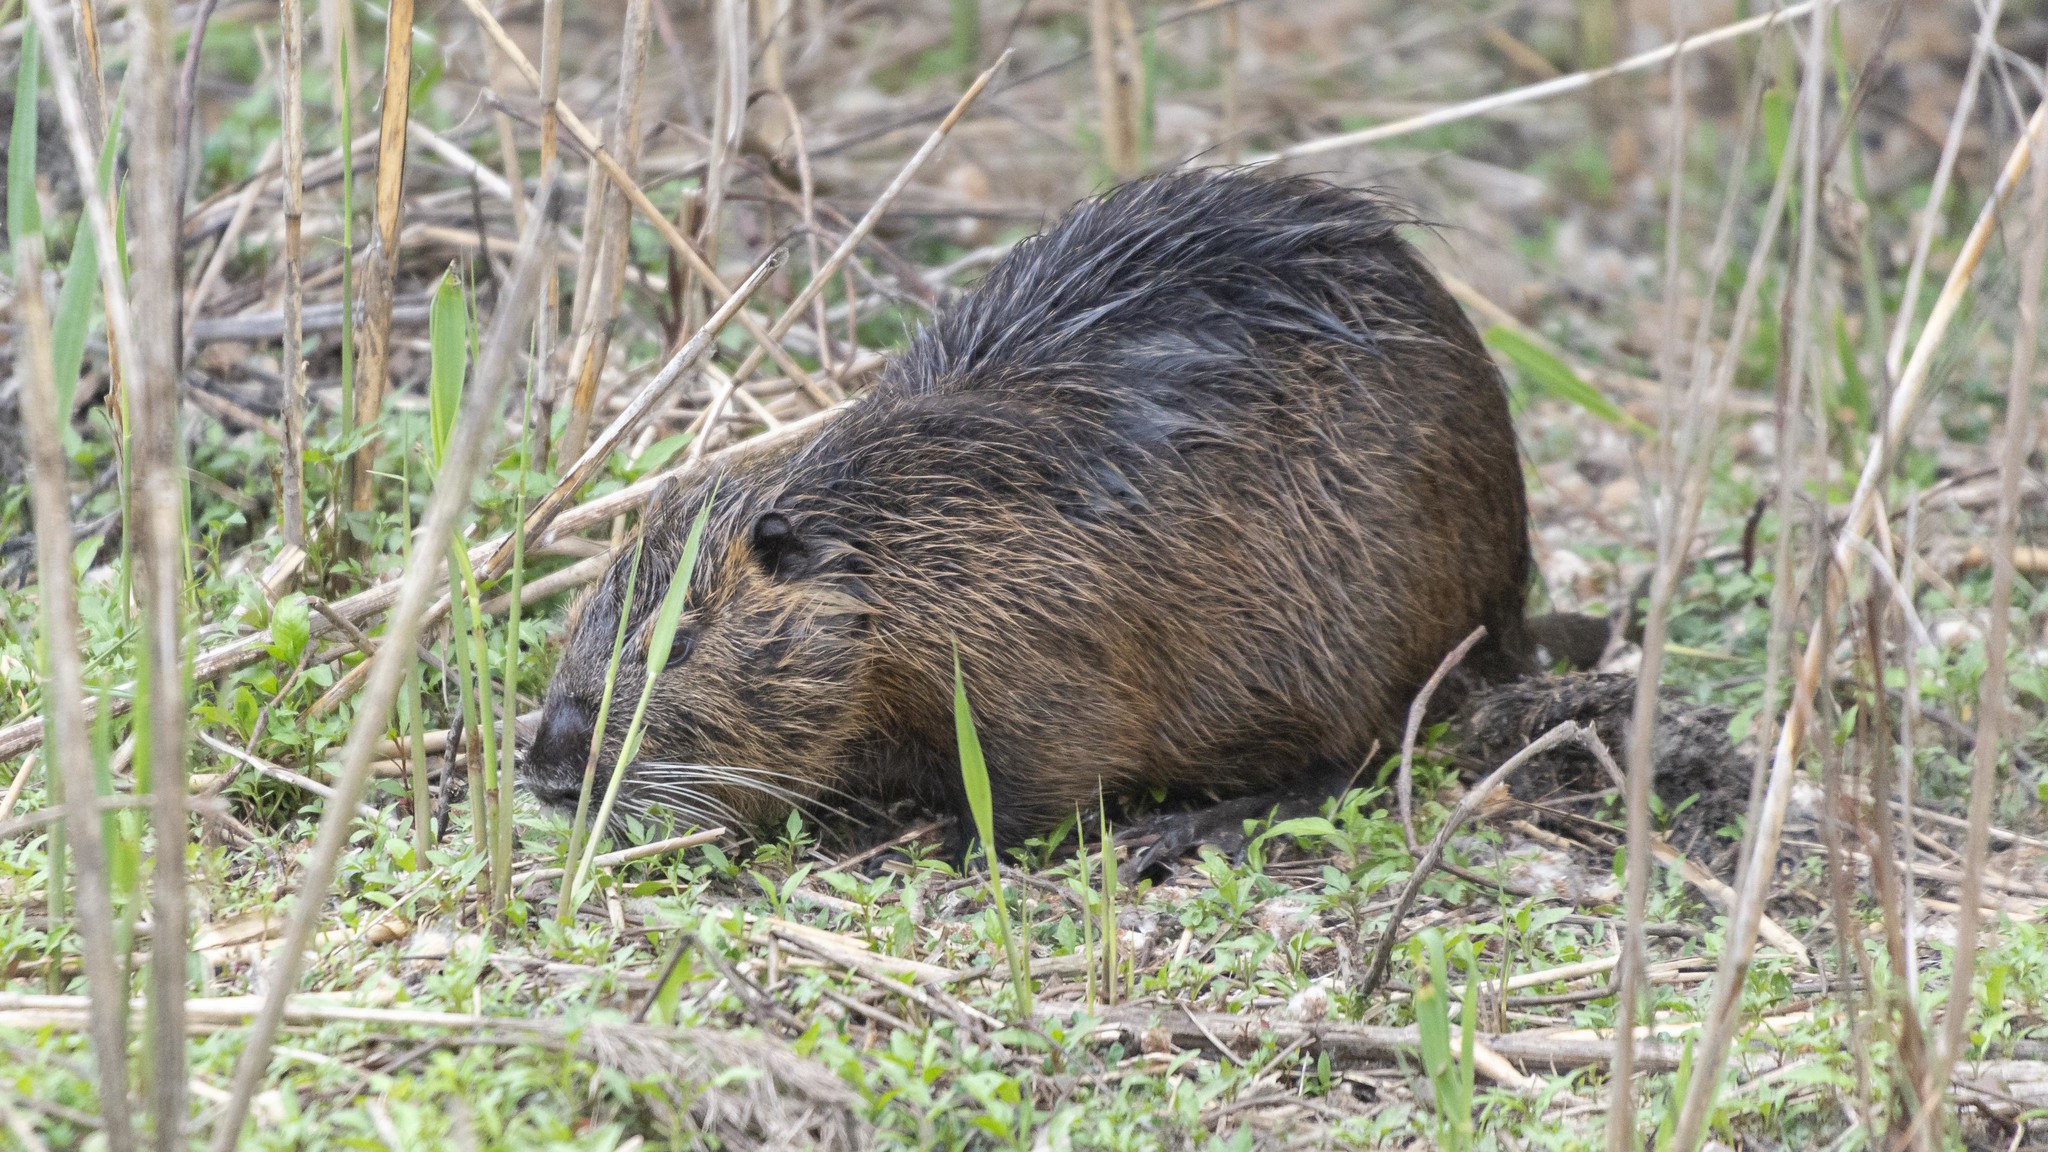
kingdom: Animalia
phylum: Chordata
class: Mammalia
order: Rodentia
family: Myocastoridae
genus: Myocastor
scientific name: Myocastor coypus
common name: Coypu
